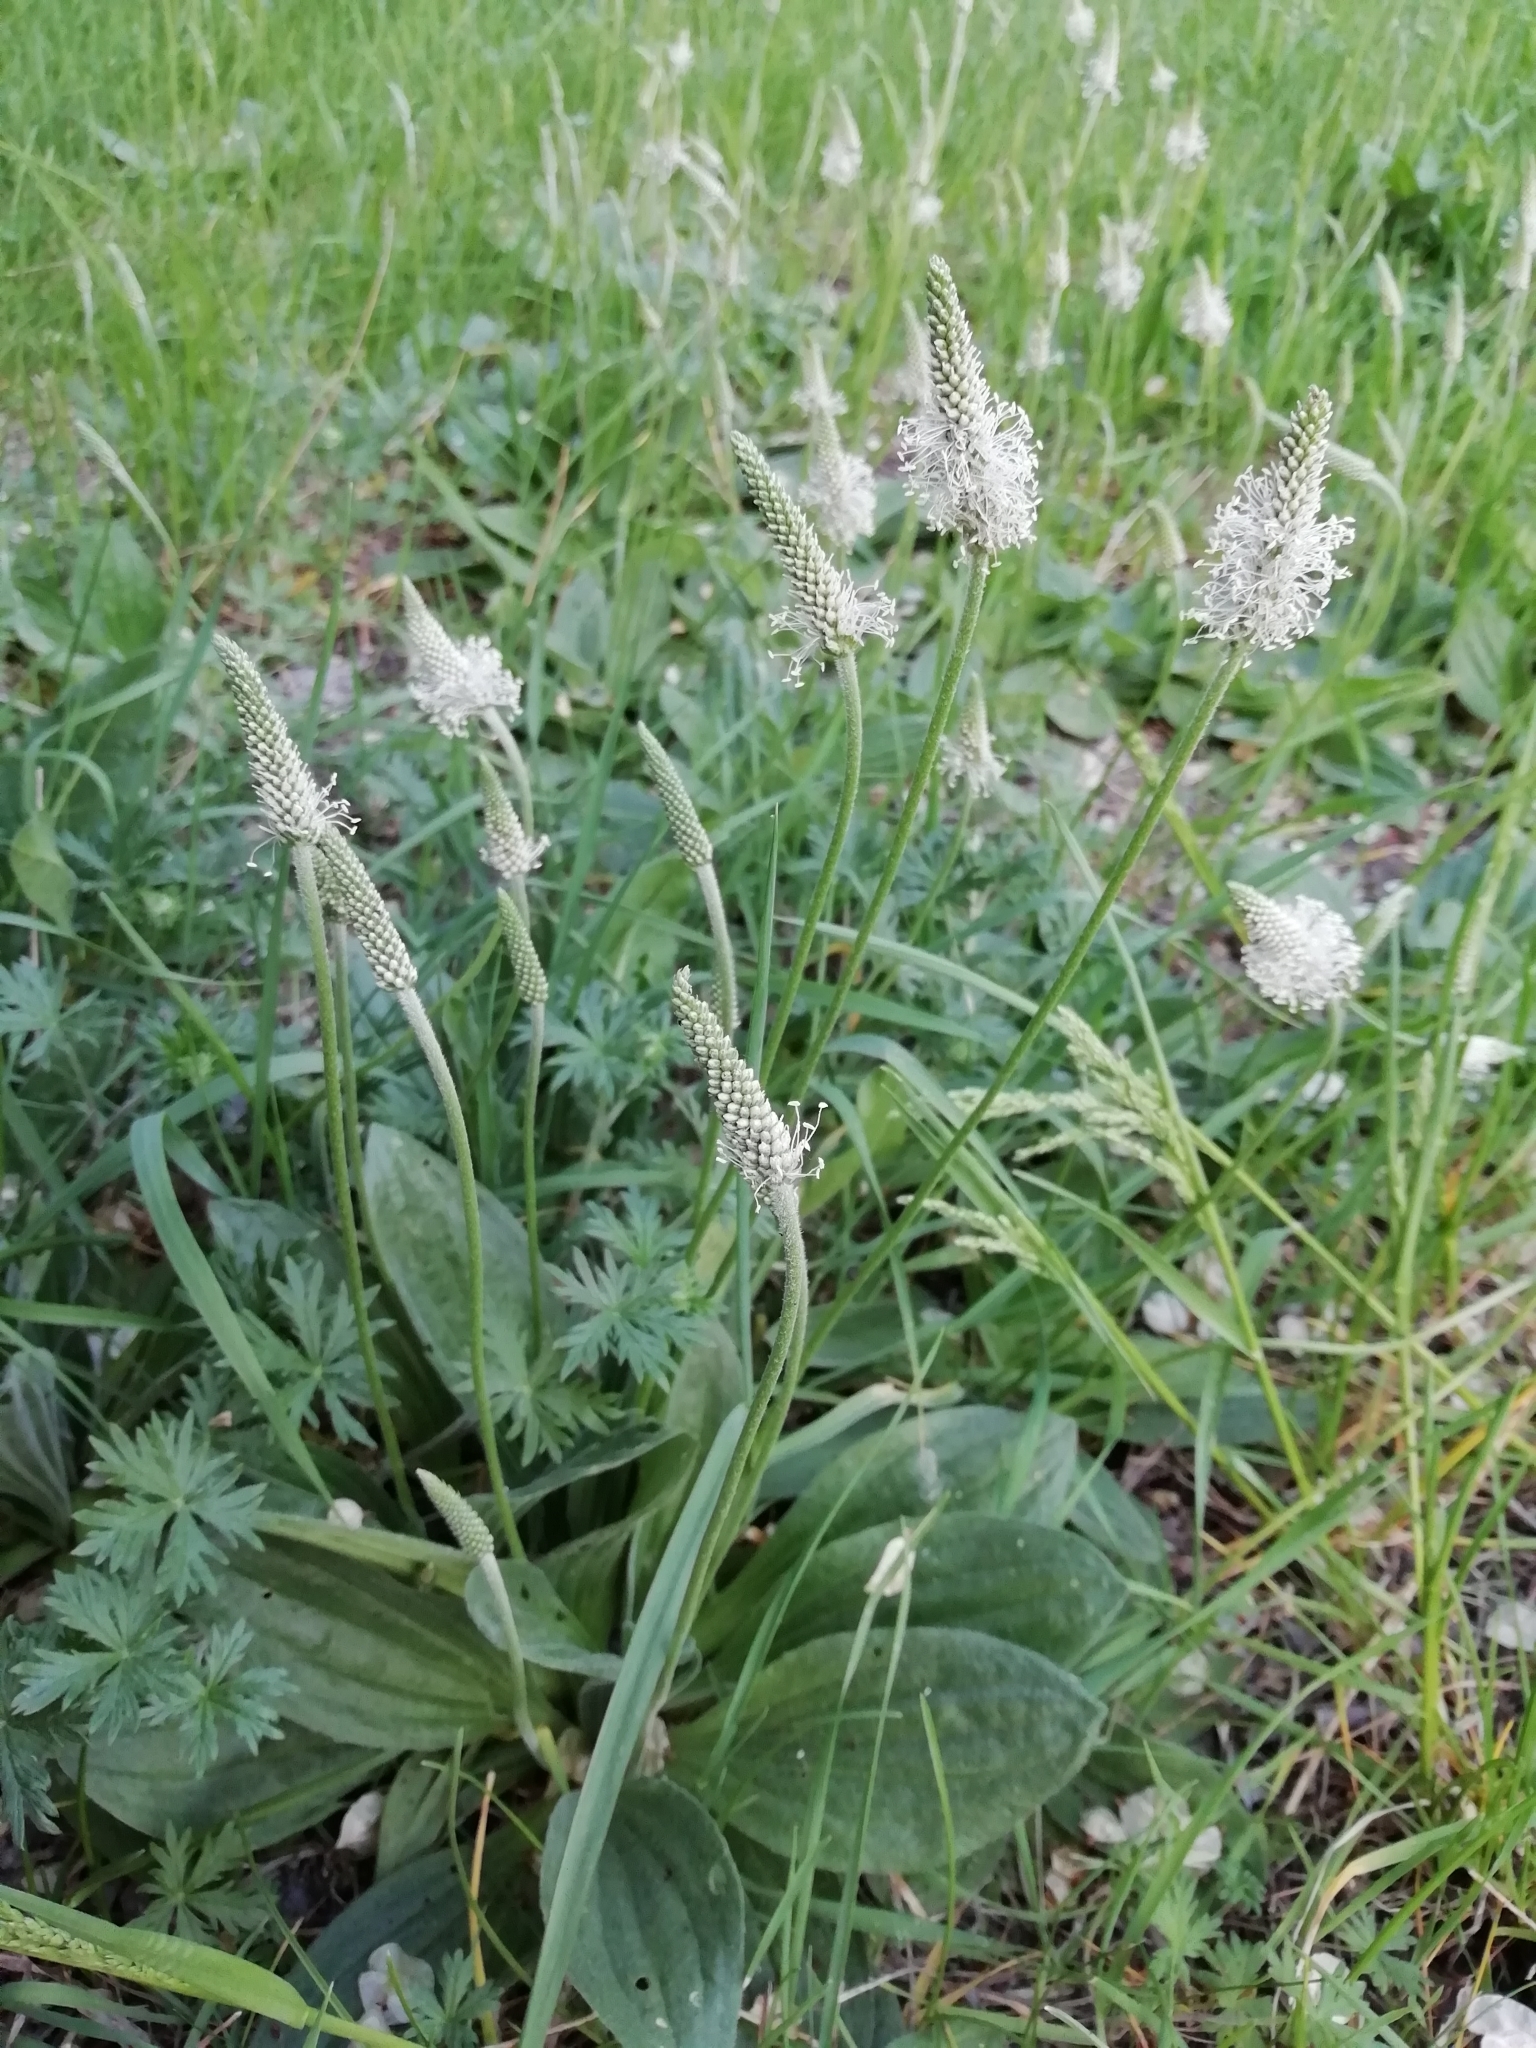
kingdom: Plantae
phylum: Tracheophyta
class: Magnoliopsida
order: Lamiales
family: Plantaginaceae
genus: Plantago
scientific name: Plantago media
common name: Hoary plantain
